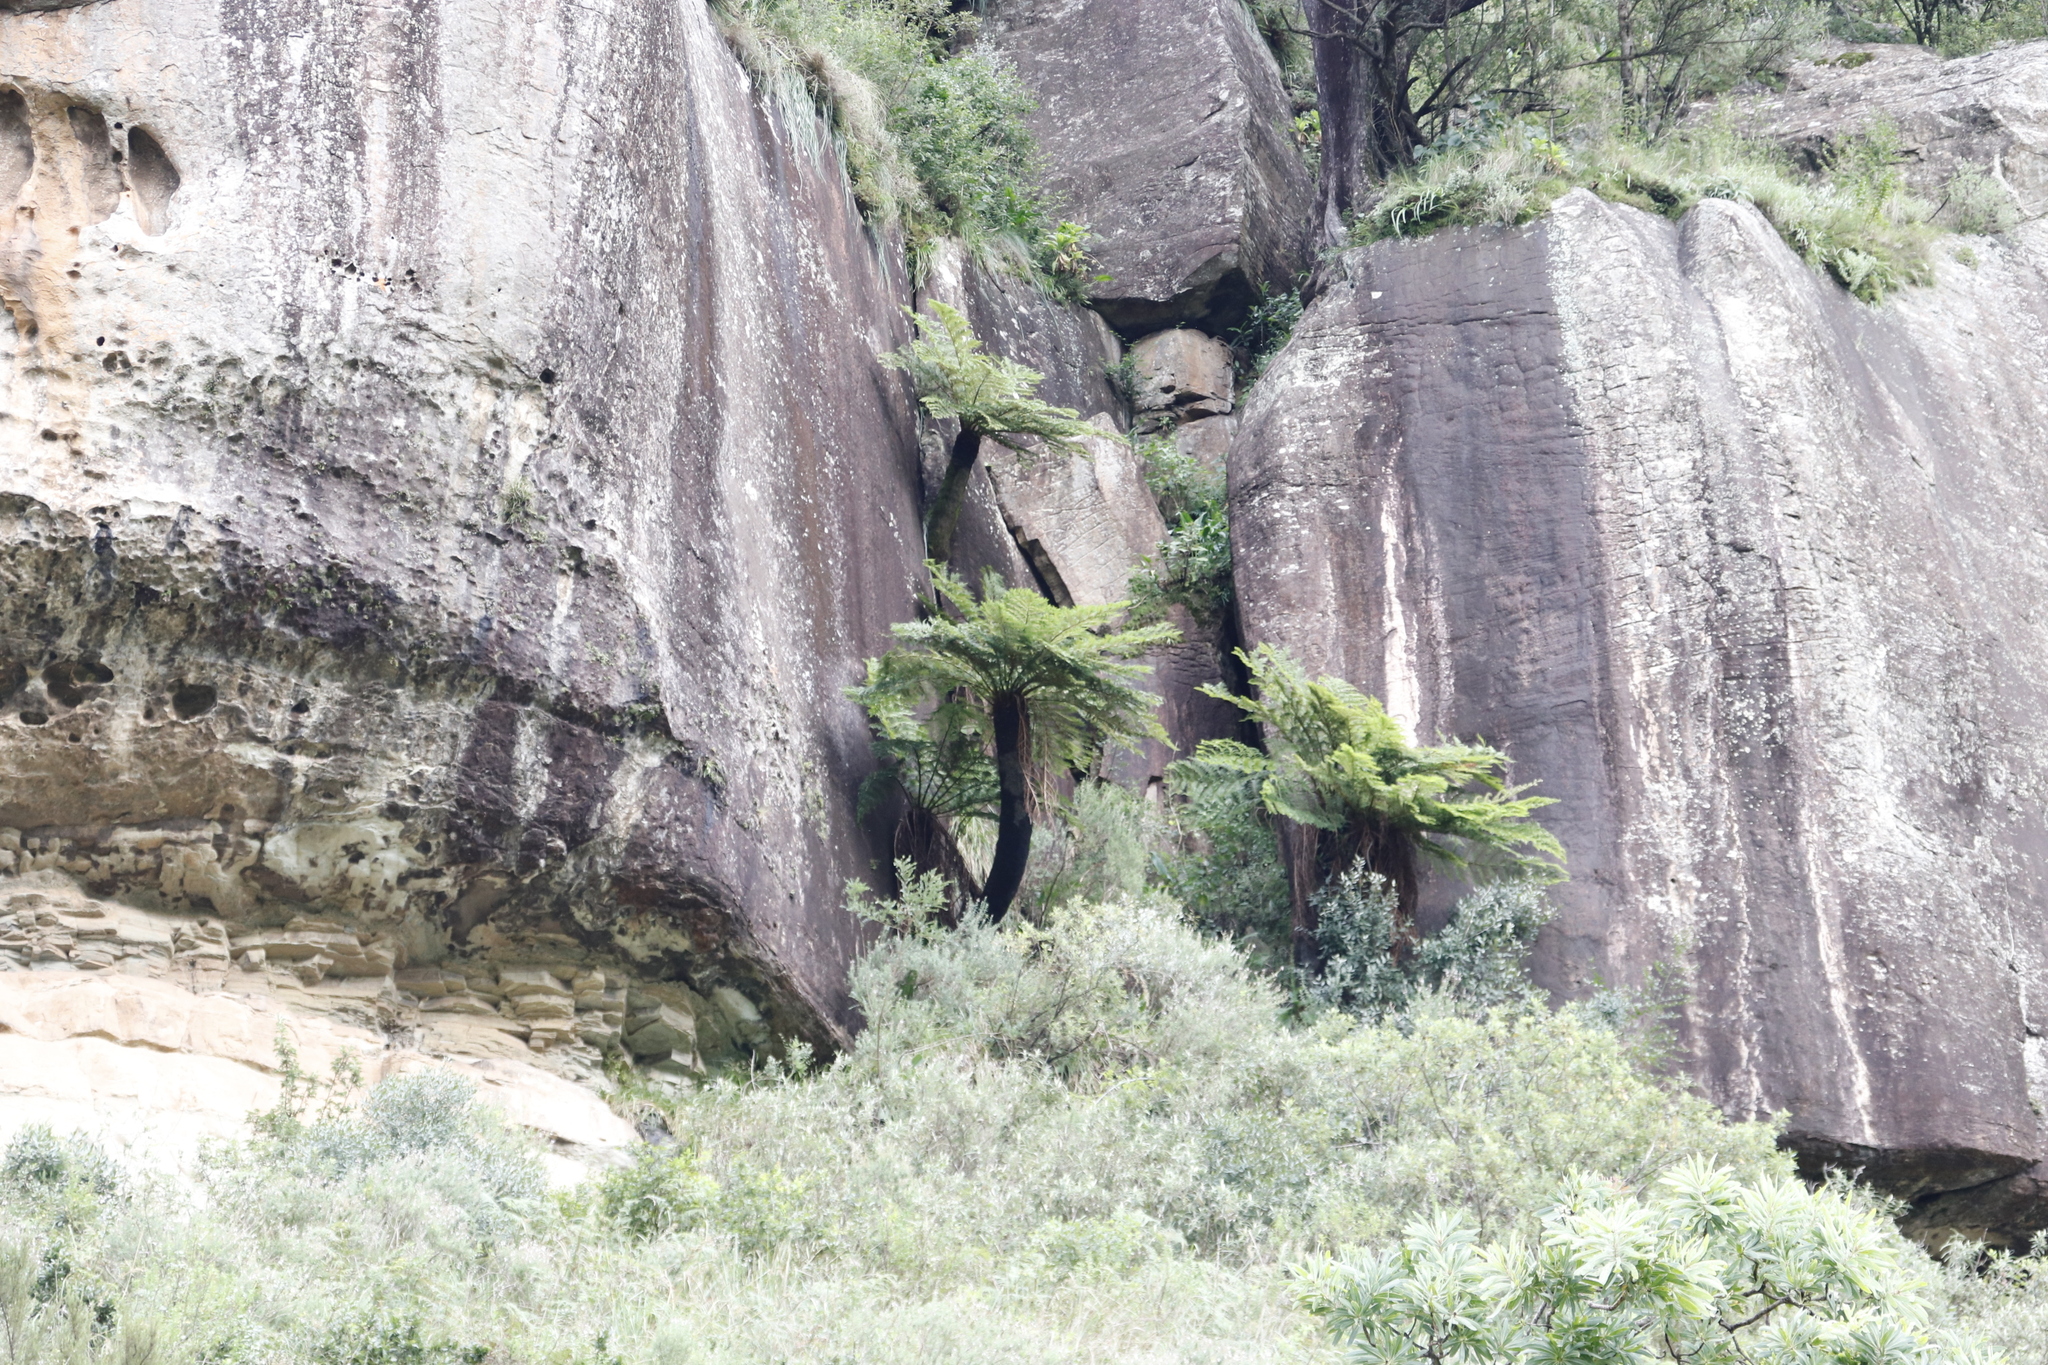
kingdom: Plantae
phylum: Tracheophyta
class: Polypodiopsida
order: Cyatheales
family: Cyatheaceae
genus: Alsophila
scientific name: Alsophila dregei
